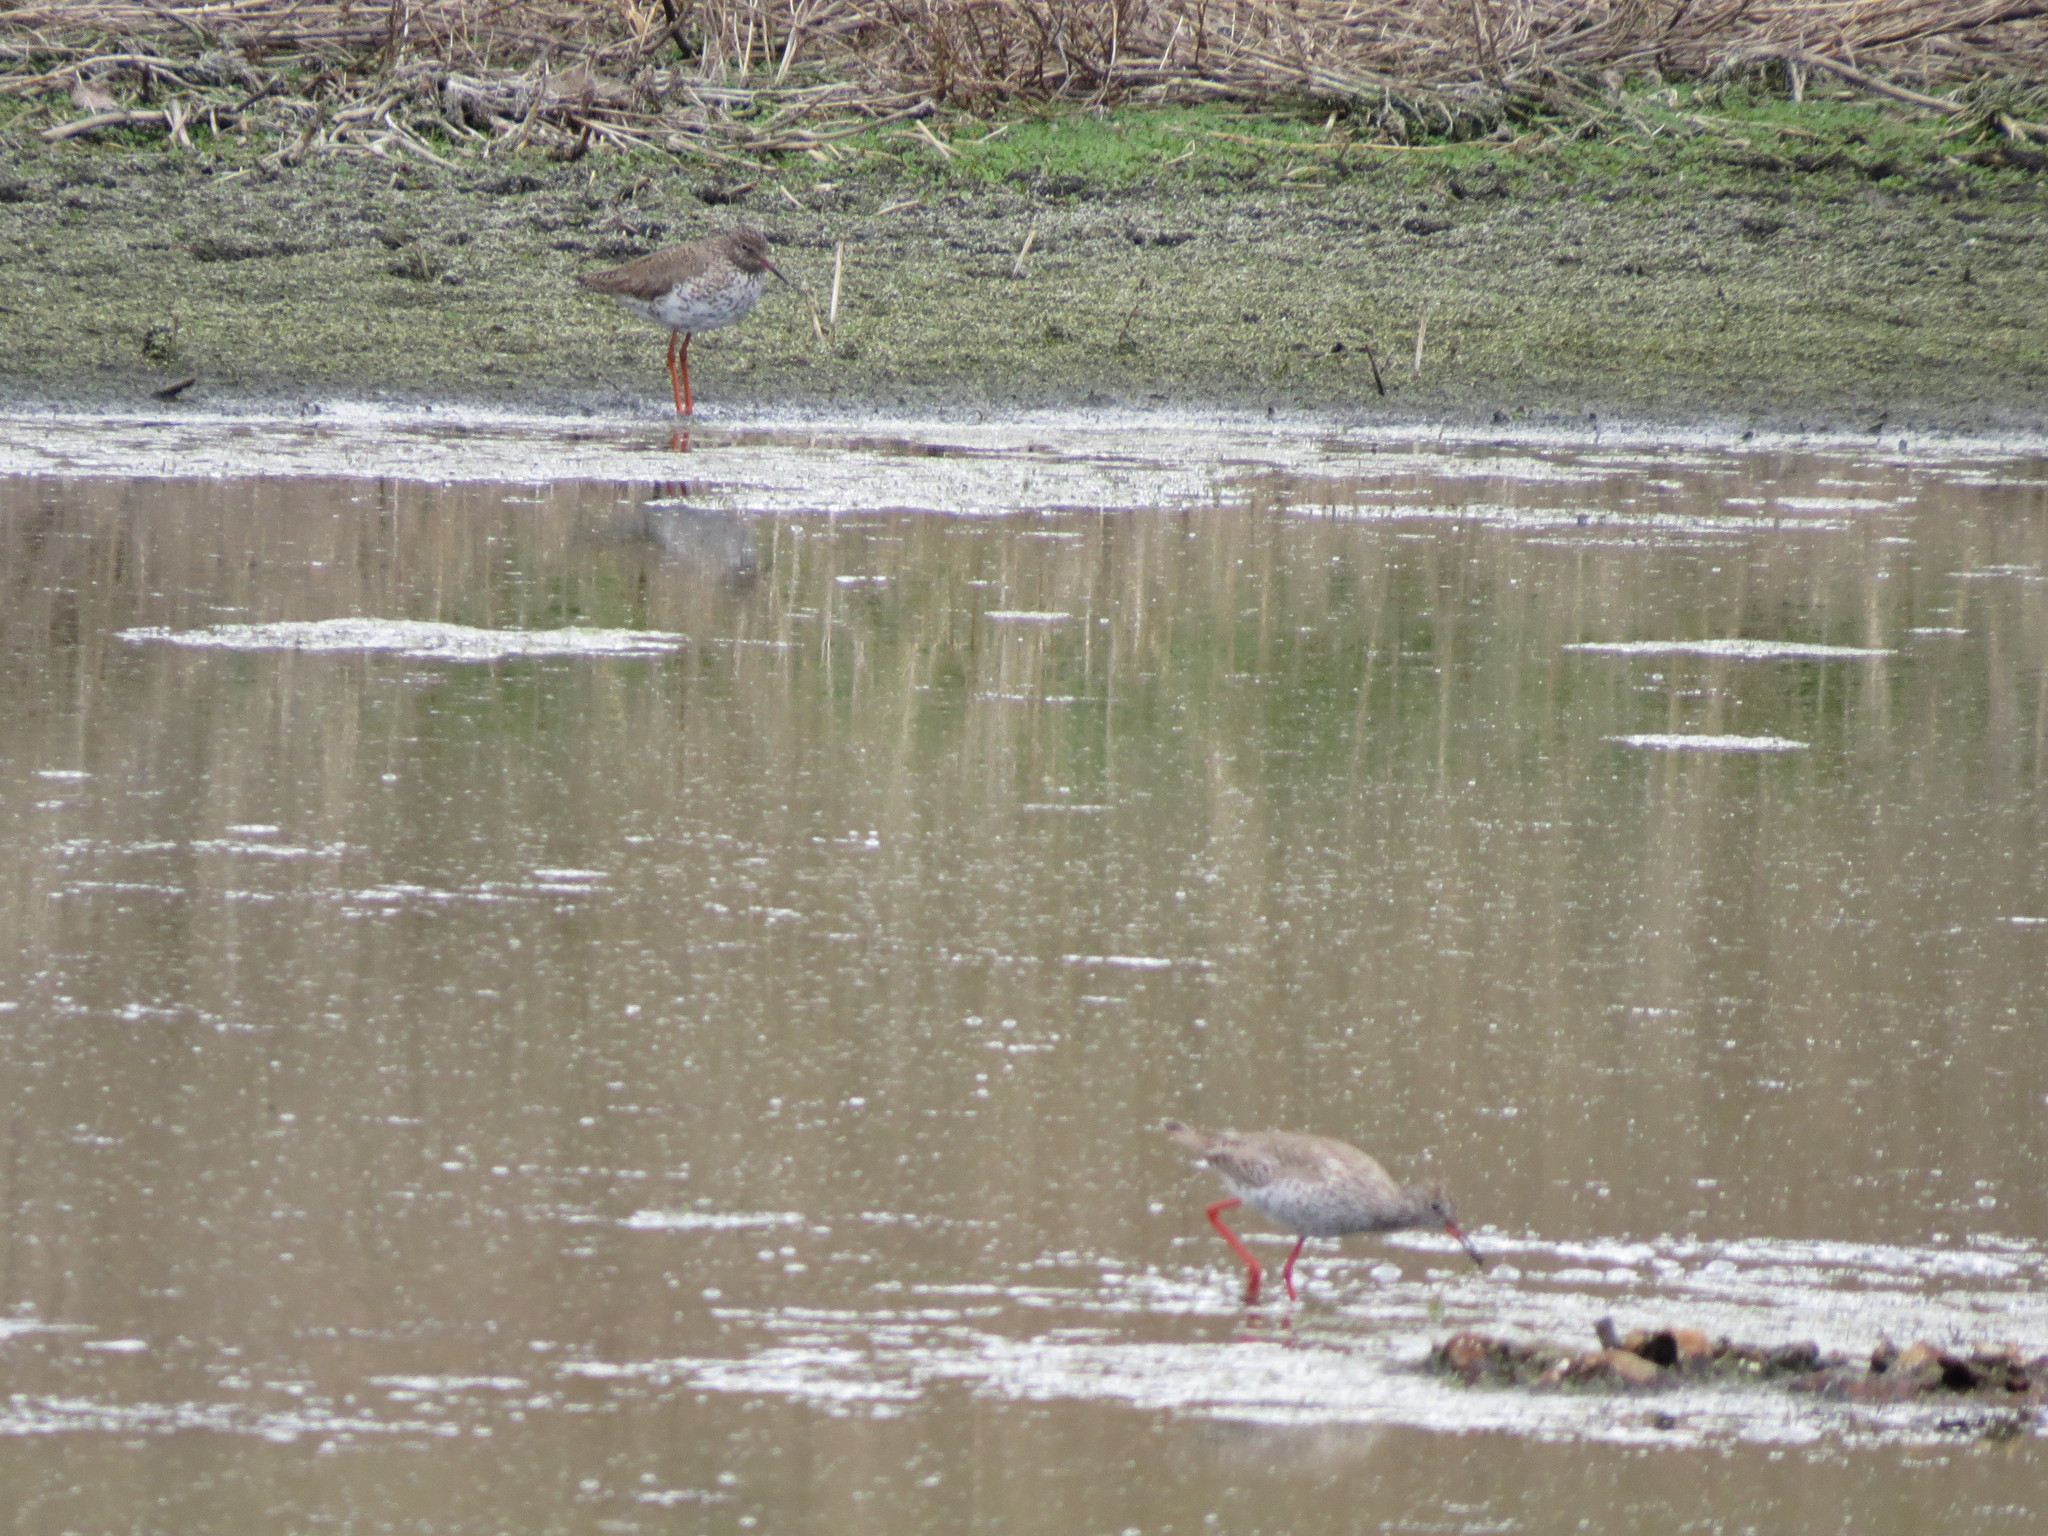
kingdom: Animalia
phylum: Chordata
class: Aves
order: Charadriiformes
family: Scolopacidae
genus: Tringa
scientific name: Tringa totanus
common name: Common redshank
